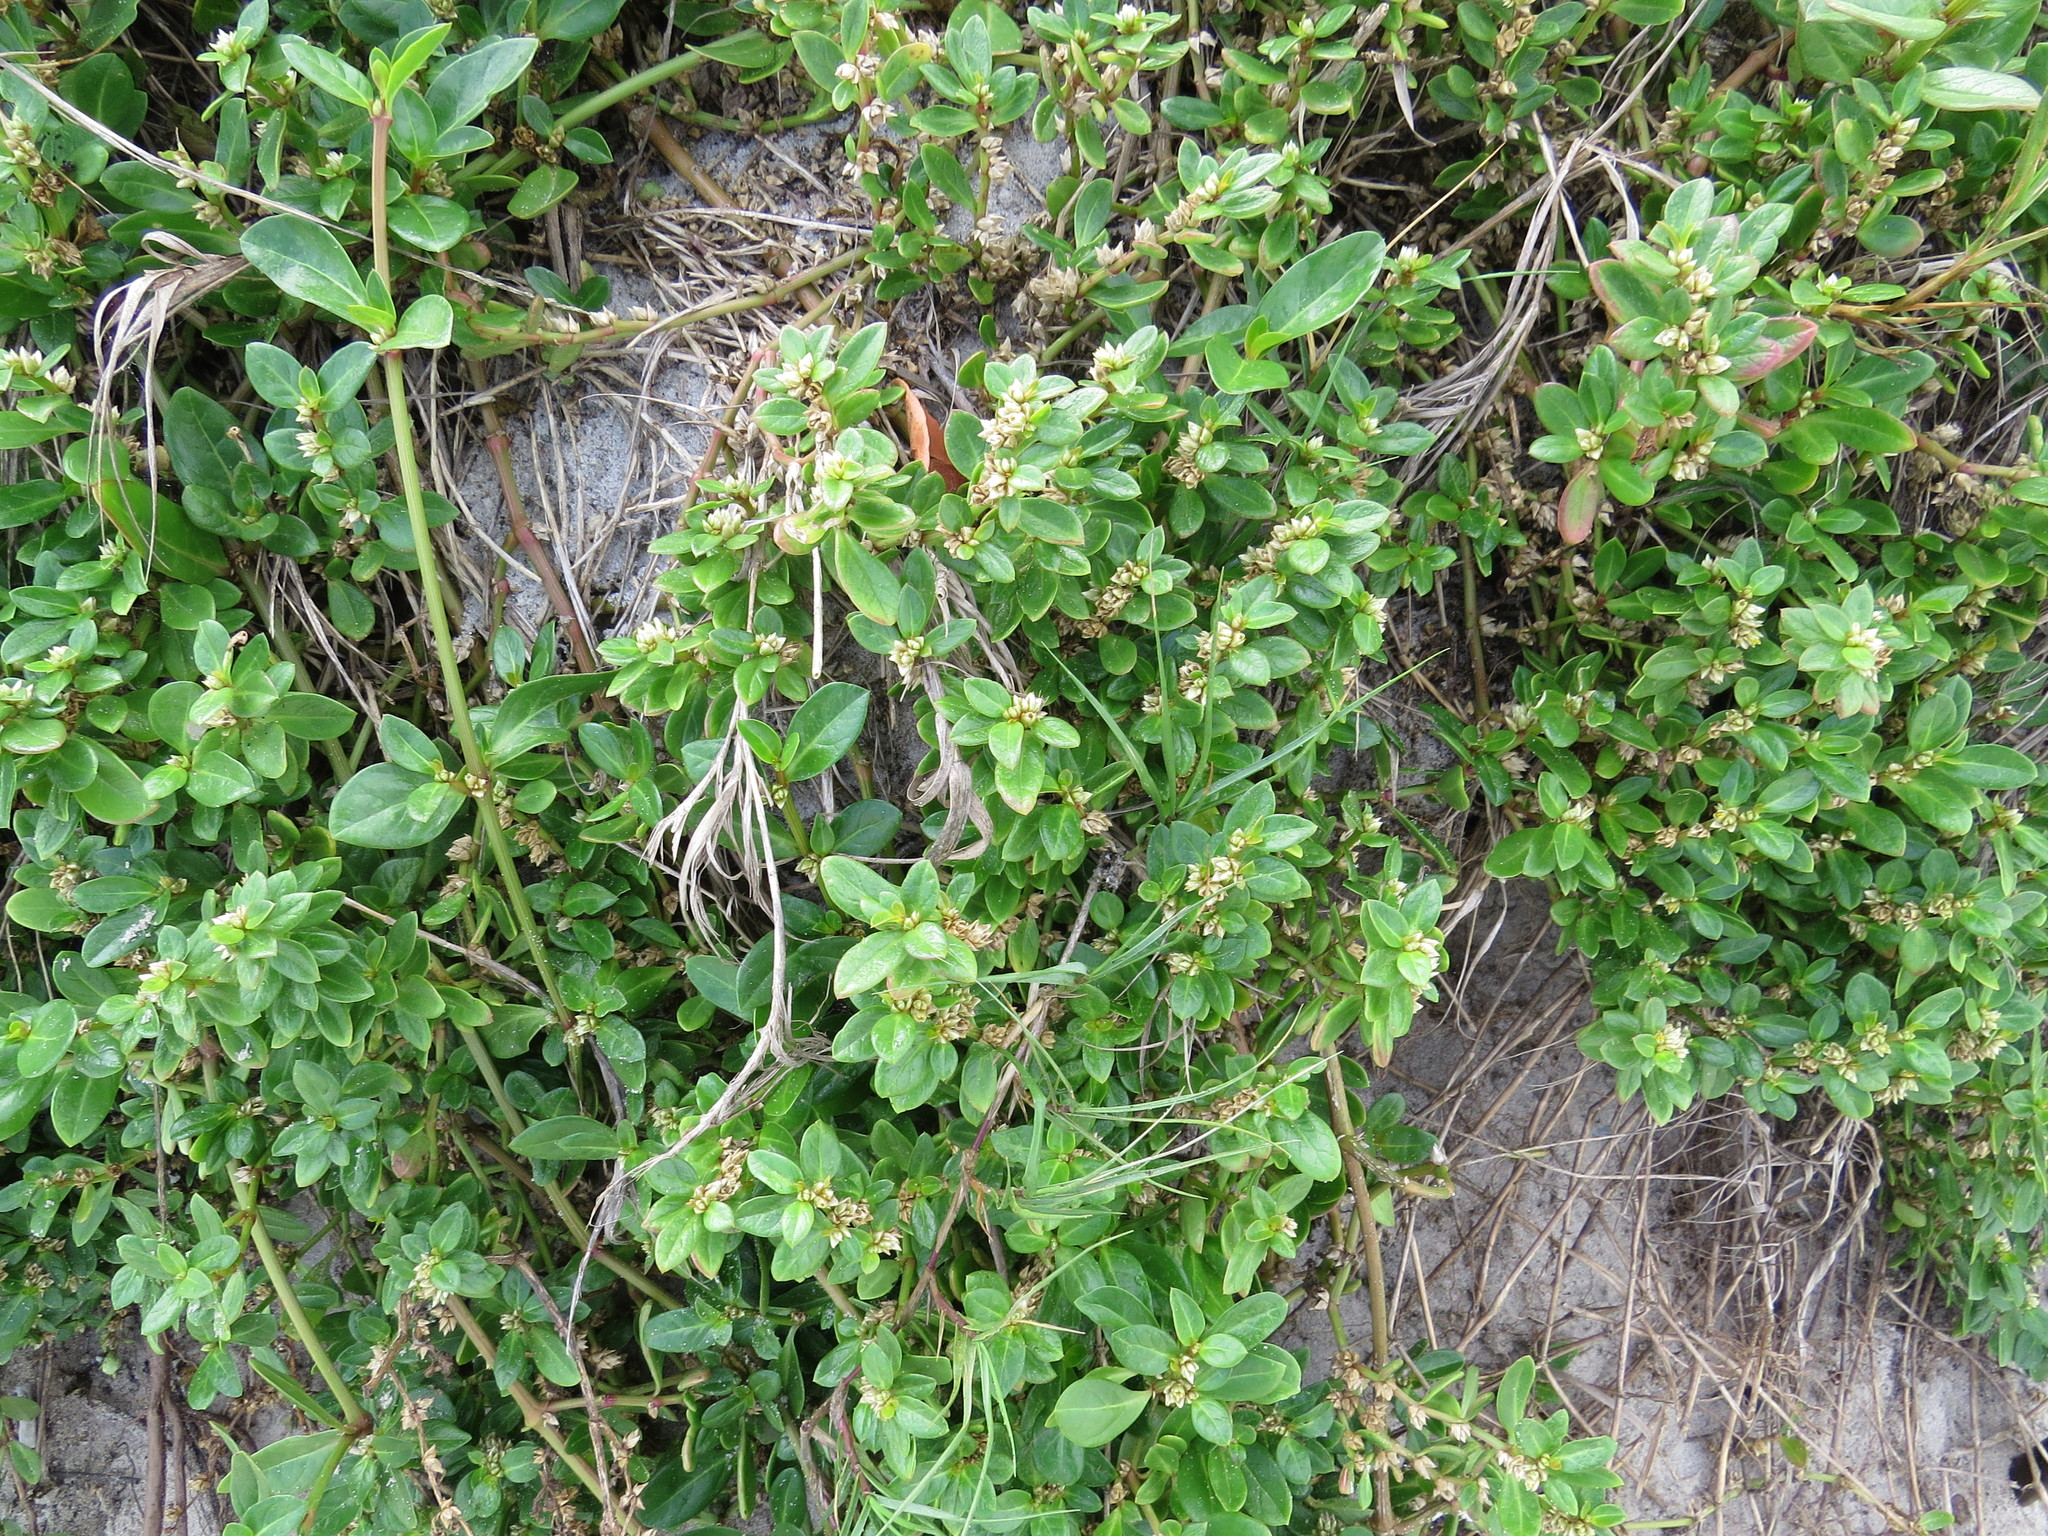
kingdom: Plantae
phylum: Tracheophyta
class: Magnoliopsida
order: Caryophyllales
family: Amaranthaceae
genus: Alternanthera
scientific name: Alternanthera littoralis
